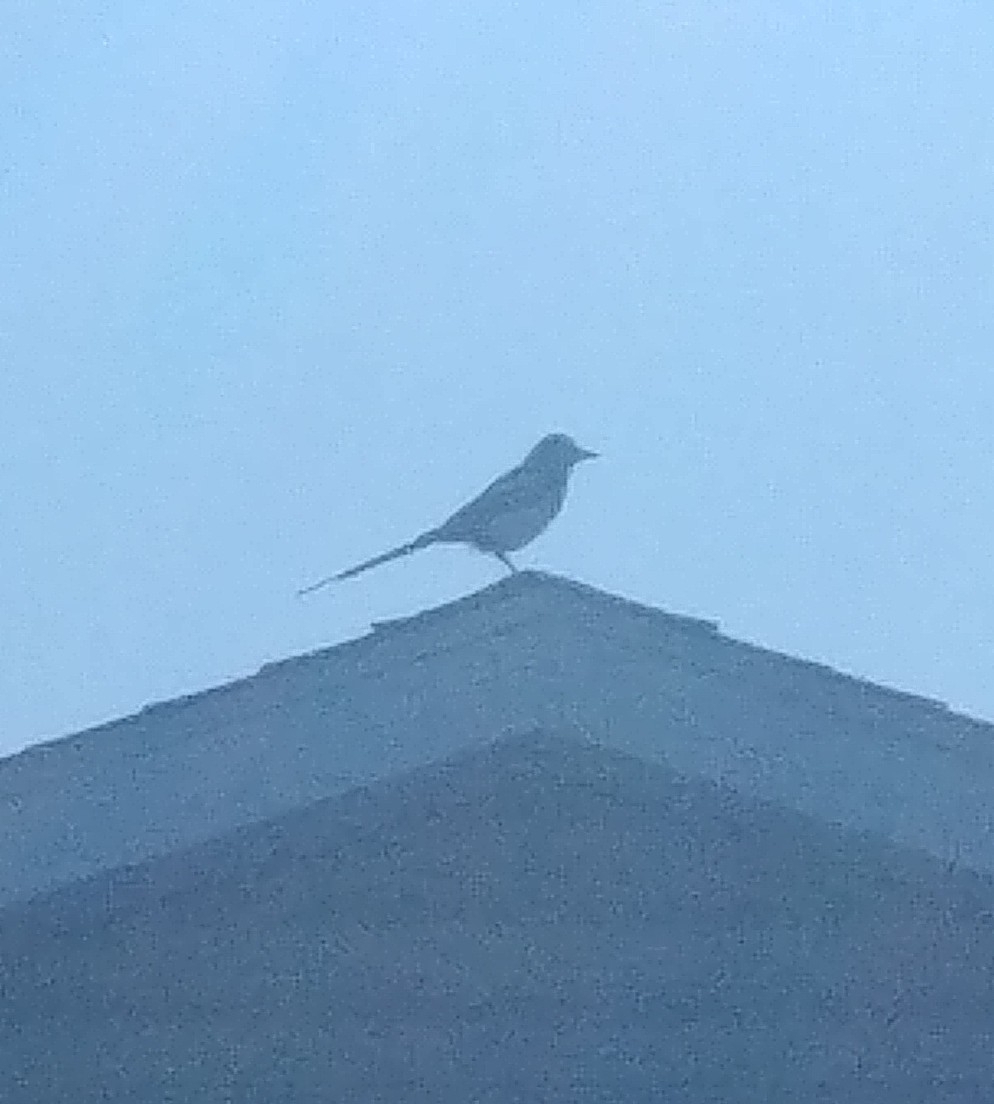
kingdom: Animalia
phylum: Chordata
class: Aves
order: Passeriformes
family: Corvidae
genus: Pica
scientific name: Pica hudsonia
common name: Black-billed magpie
